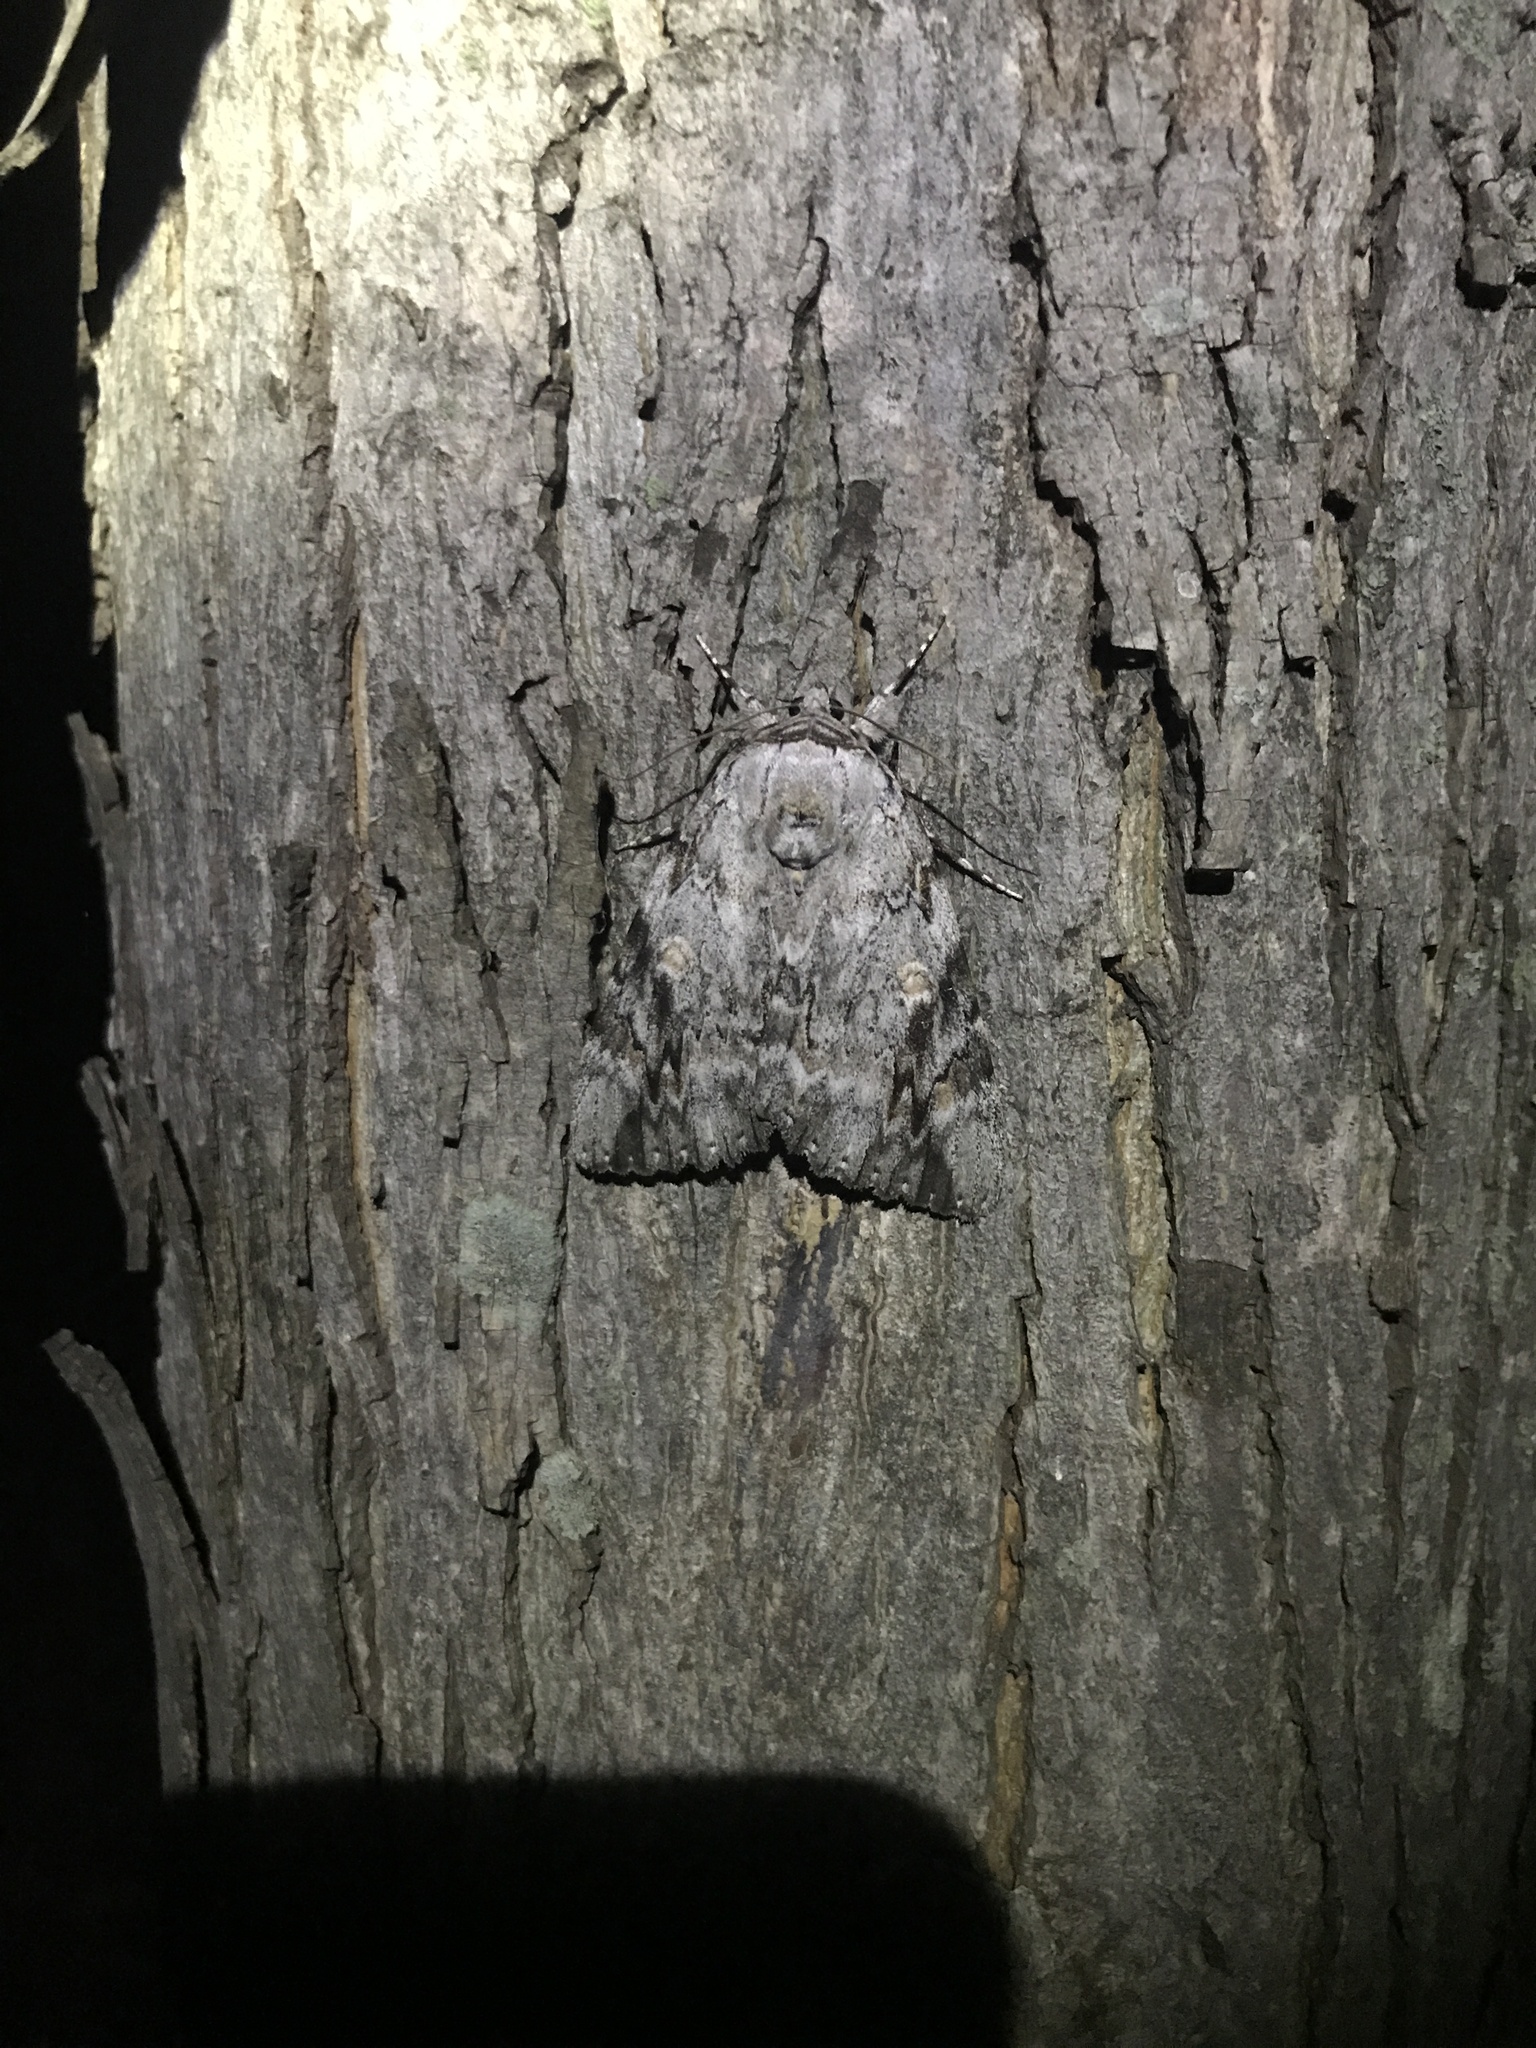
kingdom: Animalia
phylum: Arthropoda
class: Insecta
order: Lepidoptera
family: Erebidae
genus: Catocala
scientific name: Catocala maestosa
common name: Sad underwing
